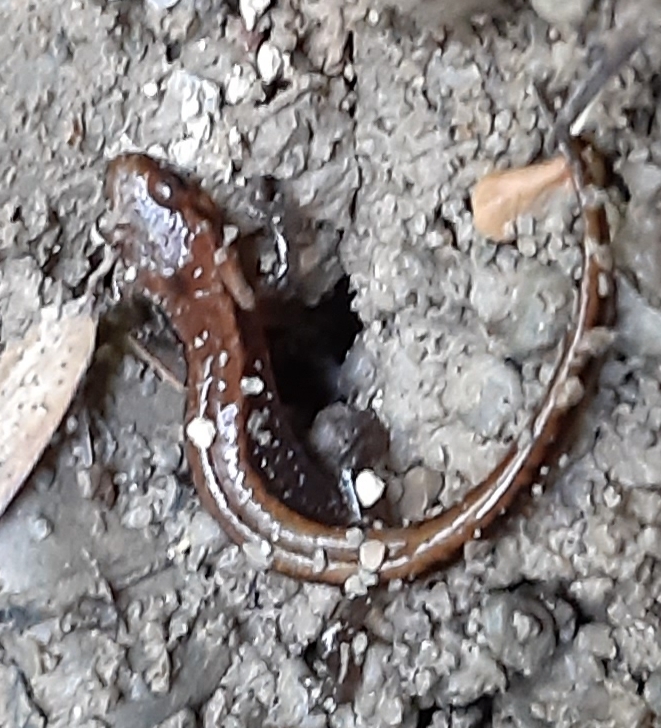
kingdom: Animalia
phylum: Chordata
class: Amphibia
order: Caudata
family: Plethodontidae
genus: Desmognathus
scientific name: Desmognathus ochrophaeus
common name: Allegheny mountain dusky salamander
